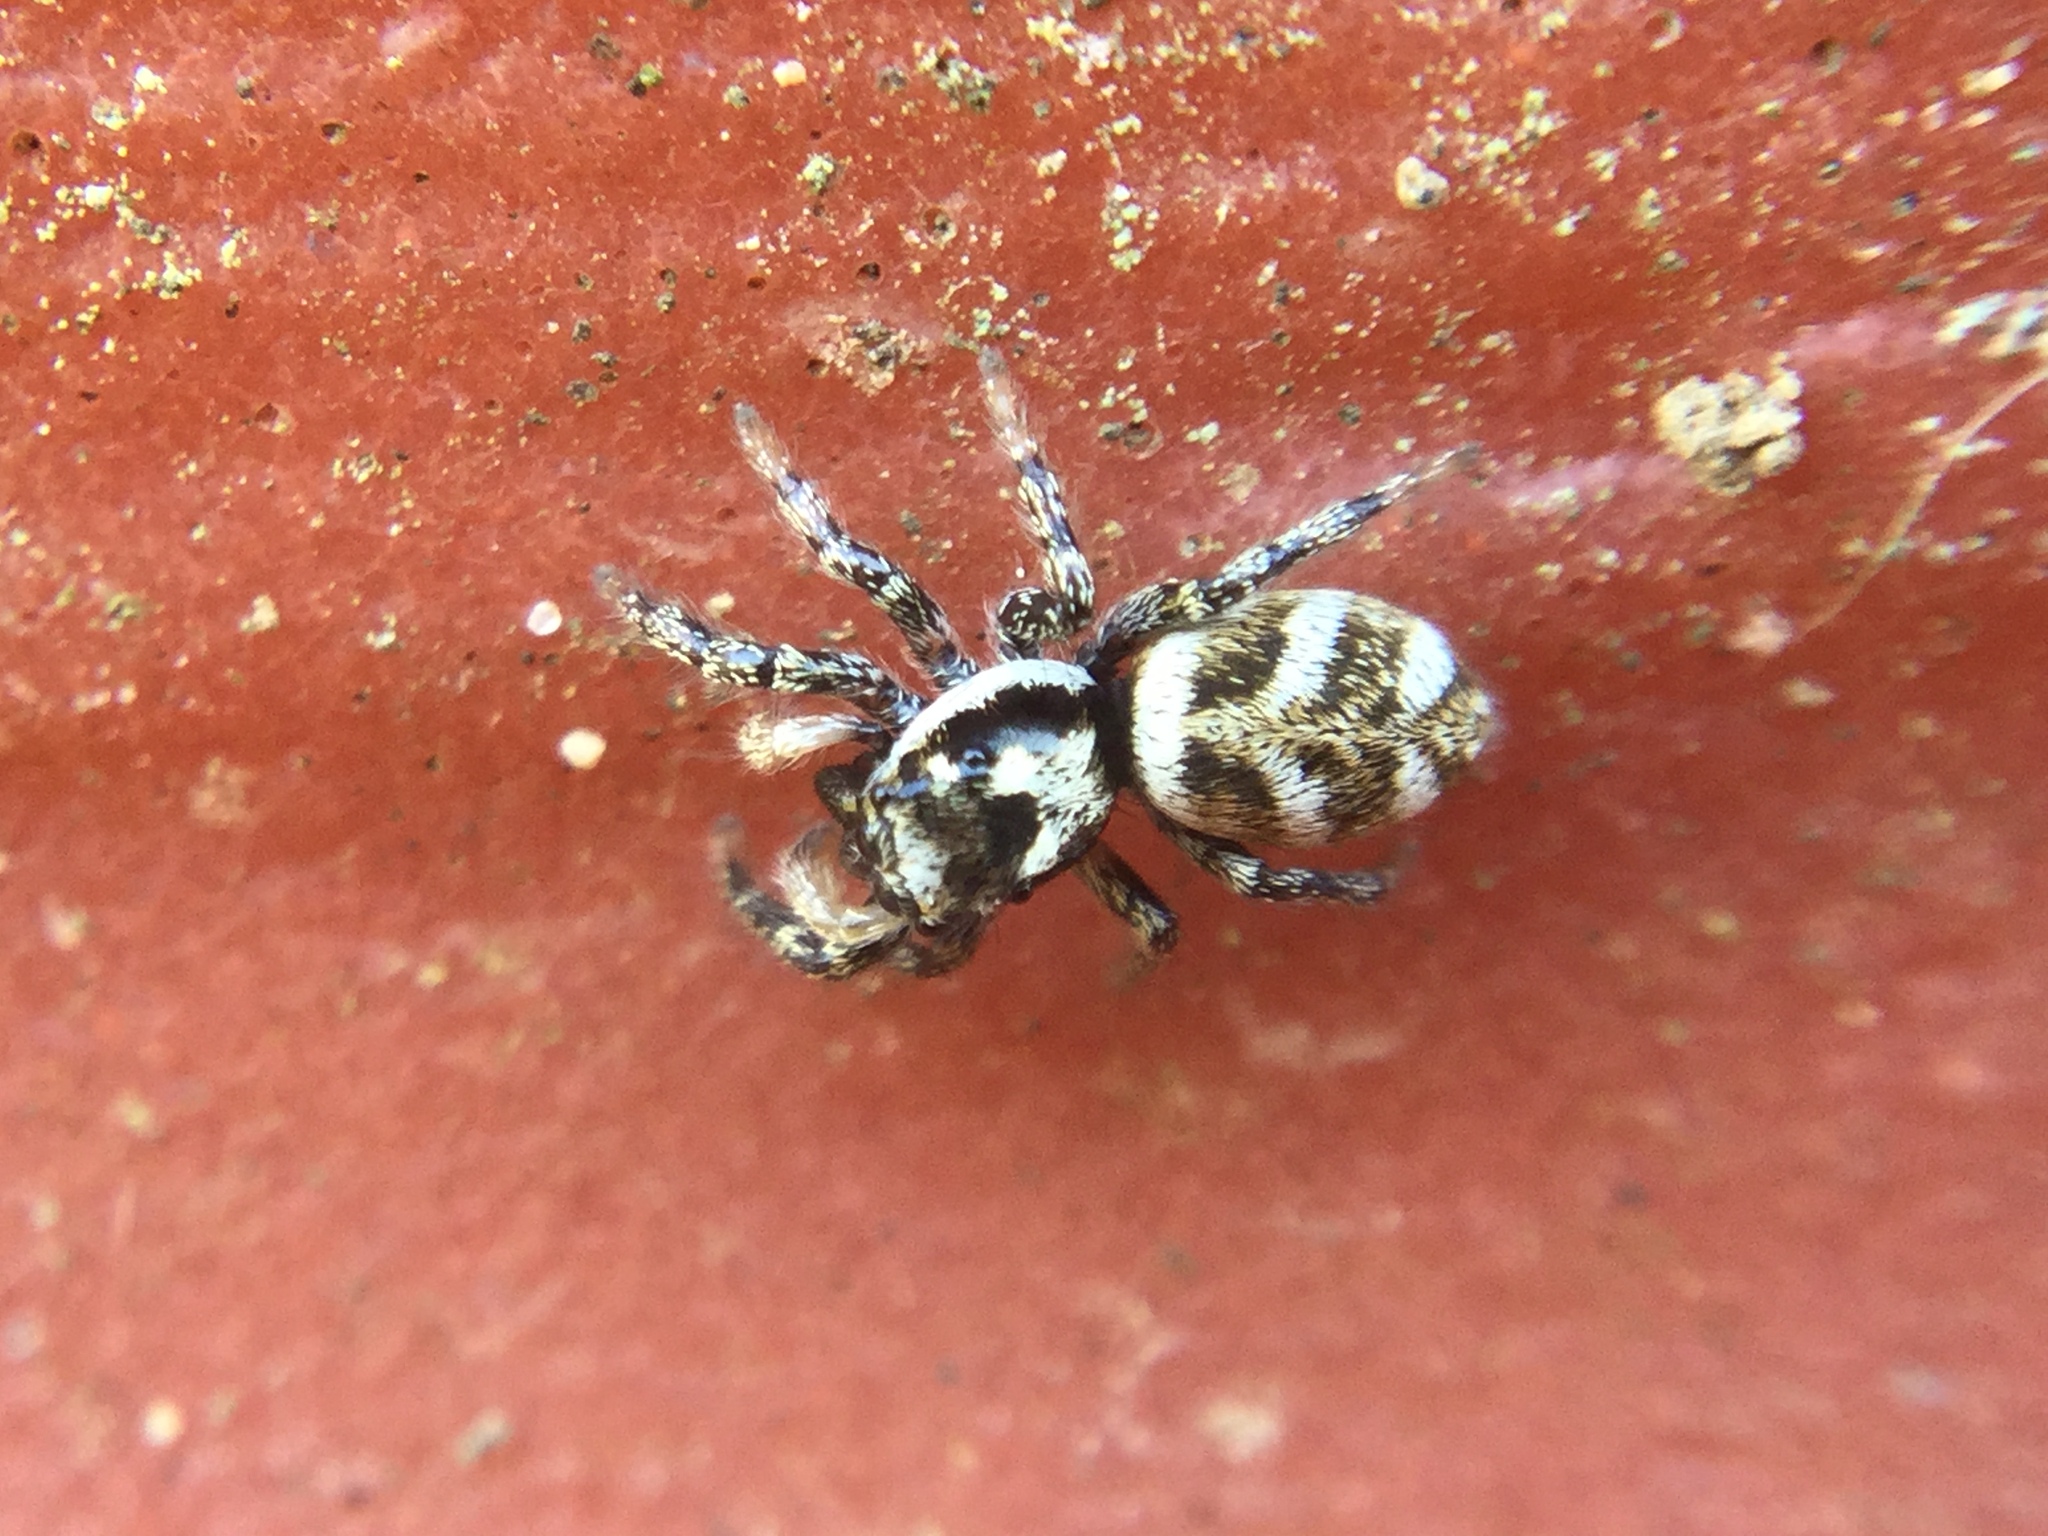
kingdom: Animalia
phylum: Arthropoda
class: Arachnida
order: Araneae
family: Salticidae
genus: Salticus
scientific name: Salticus scenicus
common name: Zebra jumper
